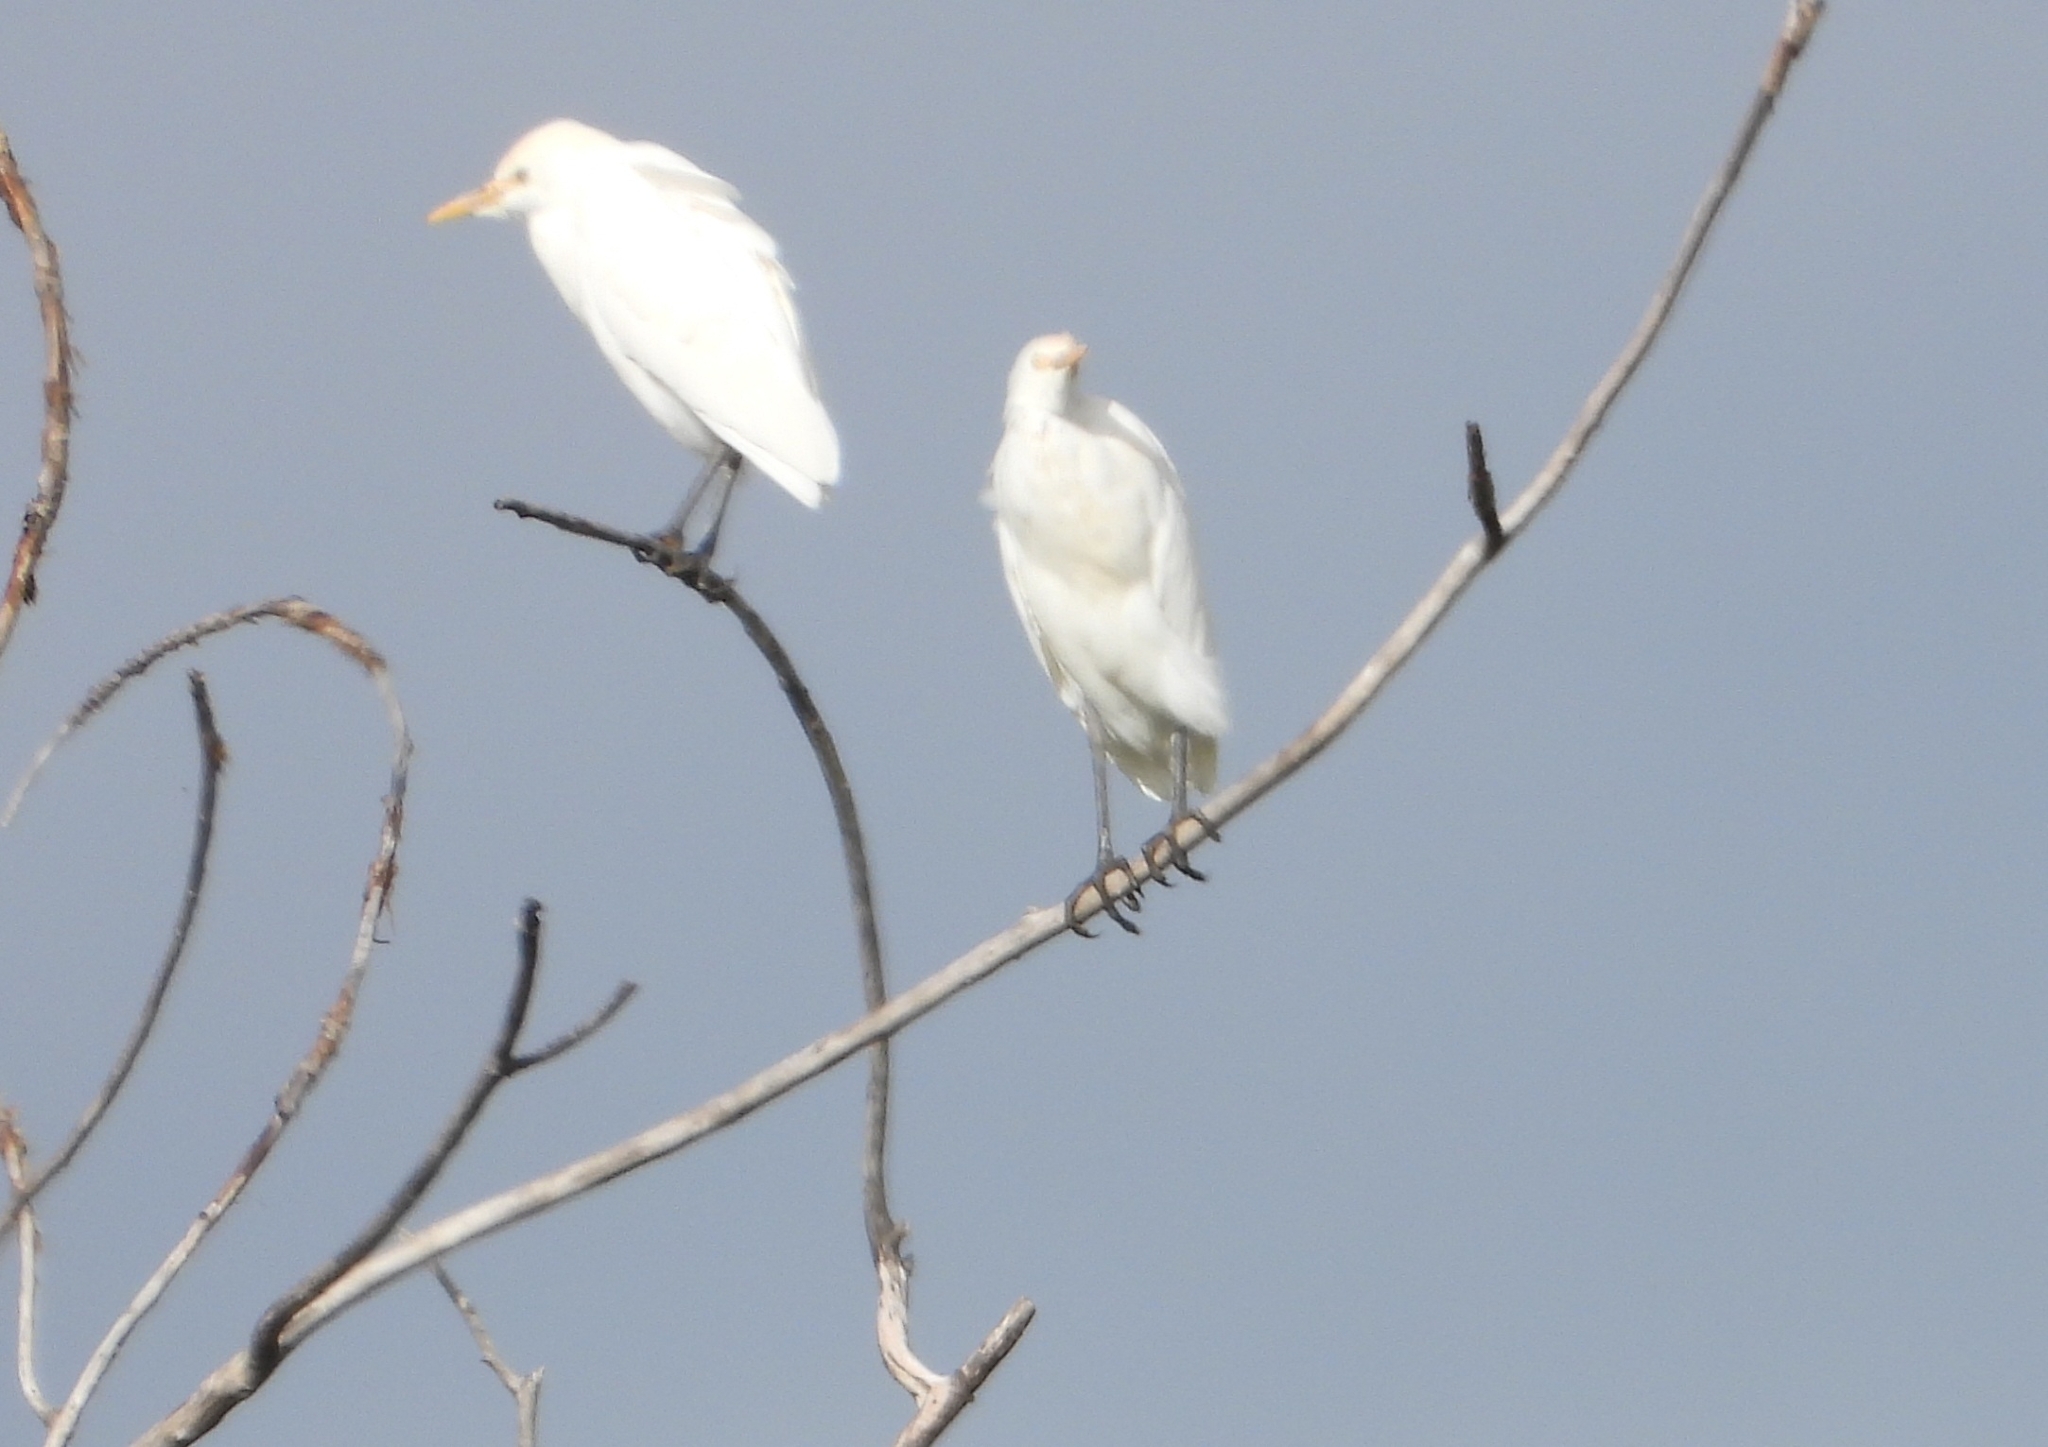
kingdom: Animalia
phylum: Chordata
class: Aves
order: Pelecaniformes
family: Ardeidae
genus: Bubulcus
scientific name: Bubulcus ibis
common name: Cattle egret
